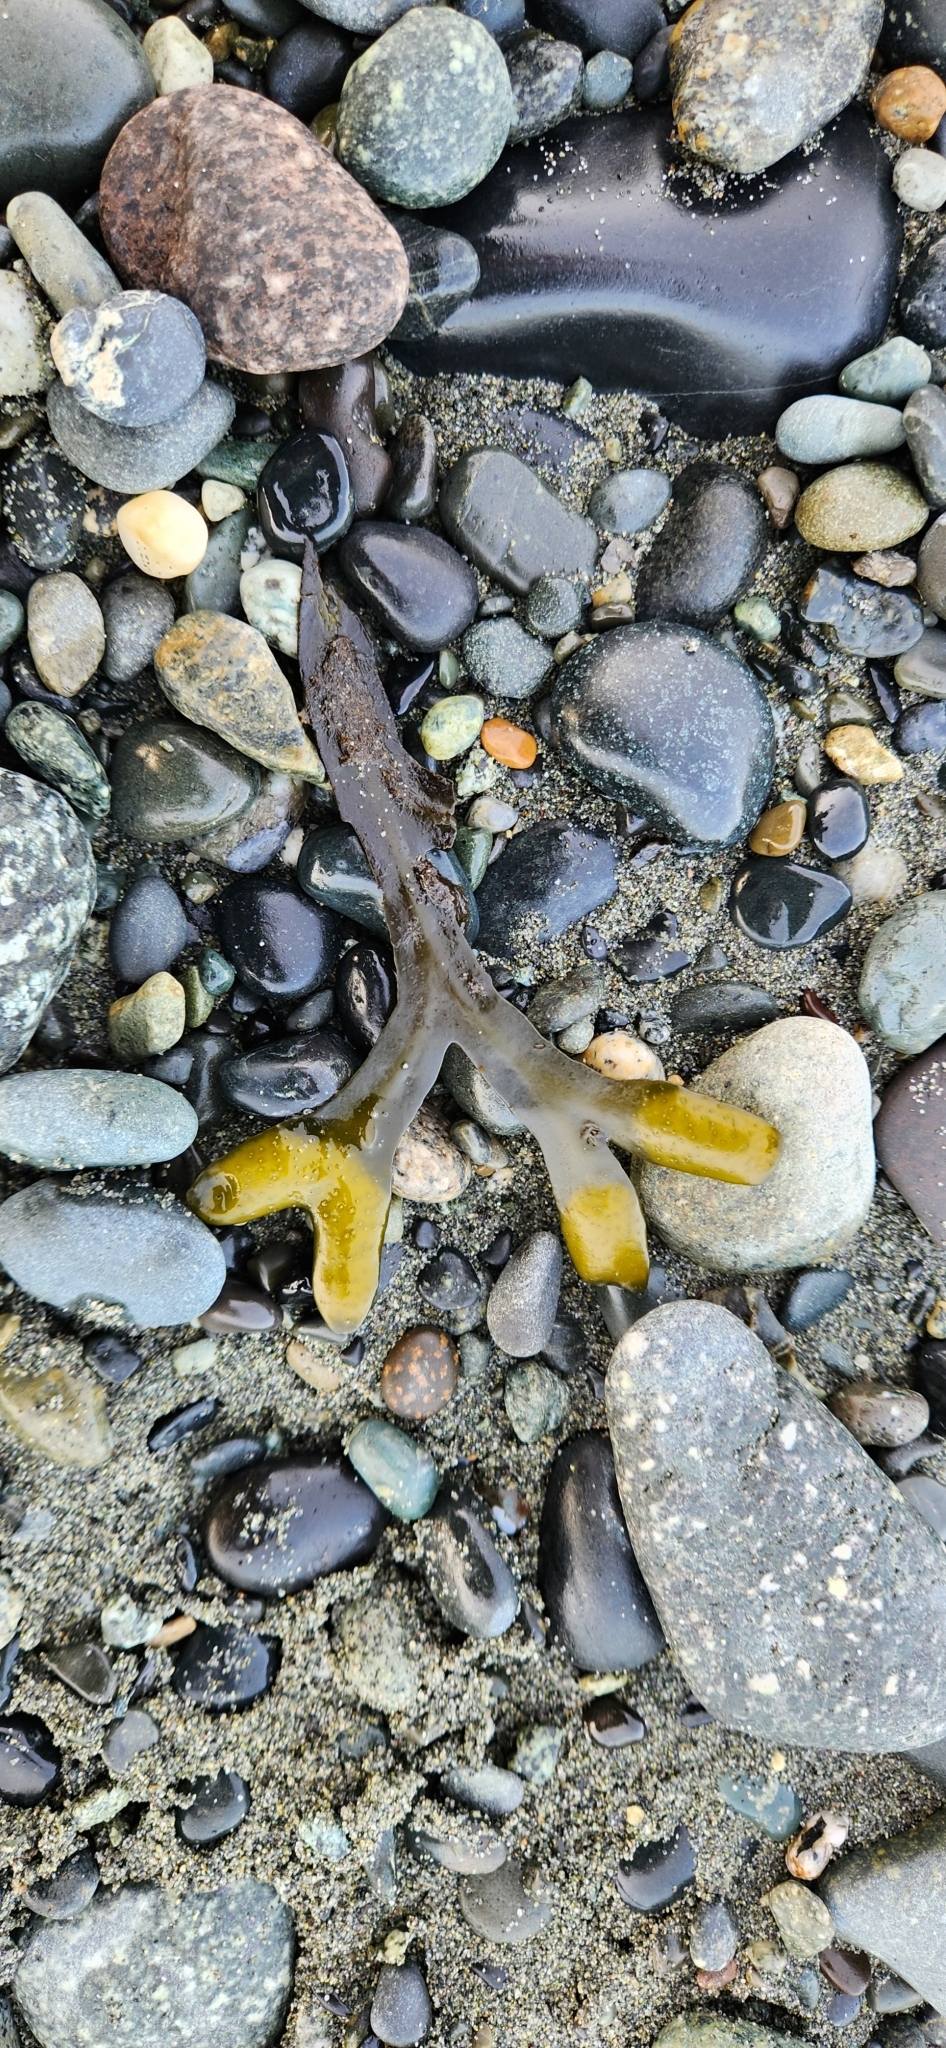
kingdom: Chromista
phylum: Ochrophyta
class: Phaeophyceae
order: Fucales
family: Fucaceae
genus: Fucus
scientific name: Fucus distichus
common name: Rockweed
